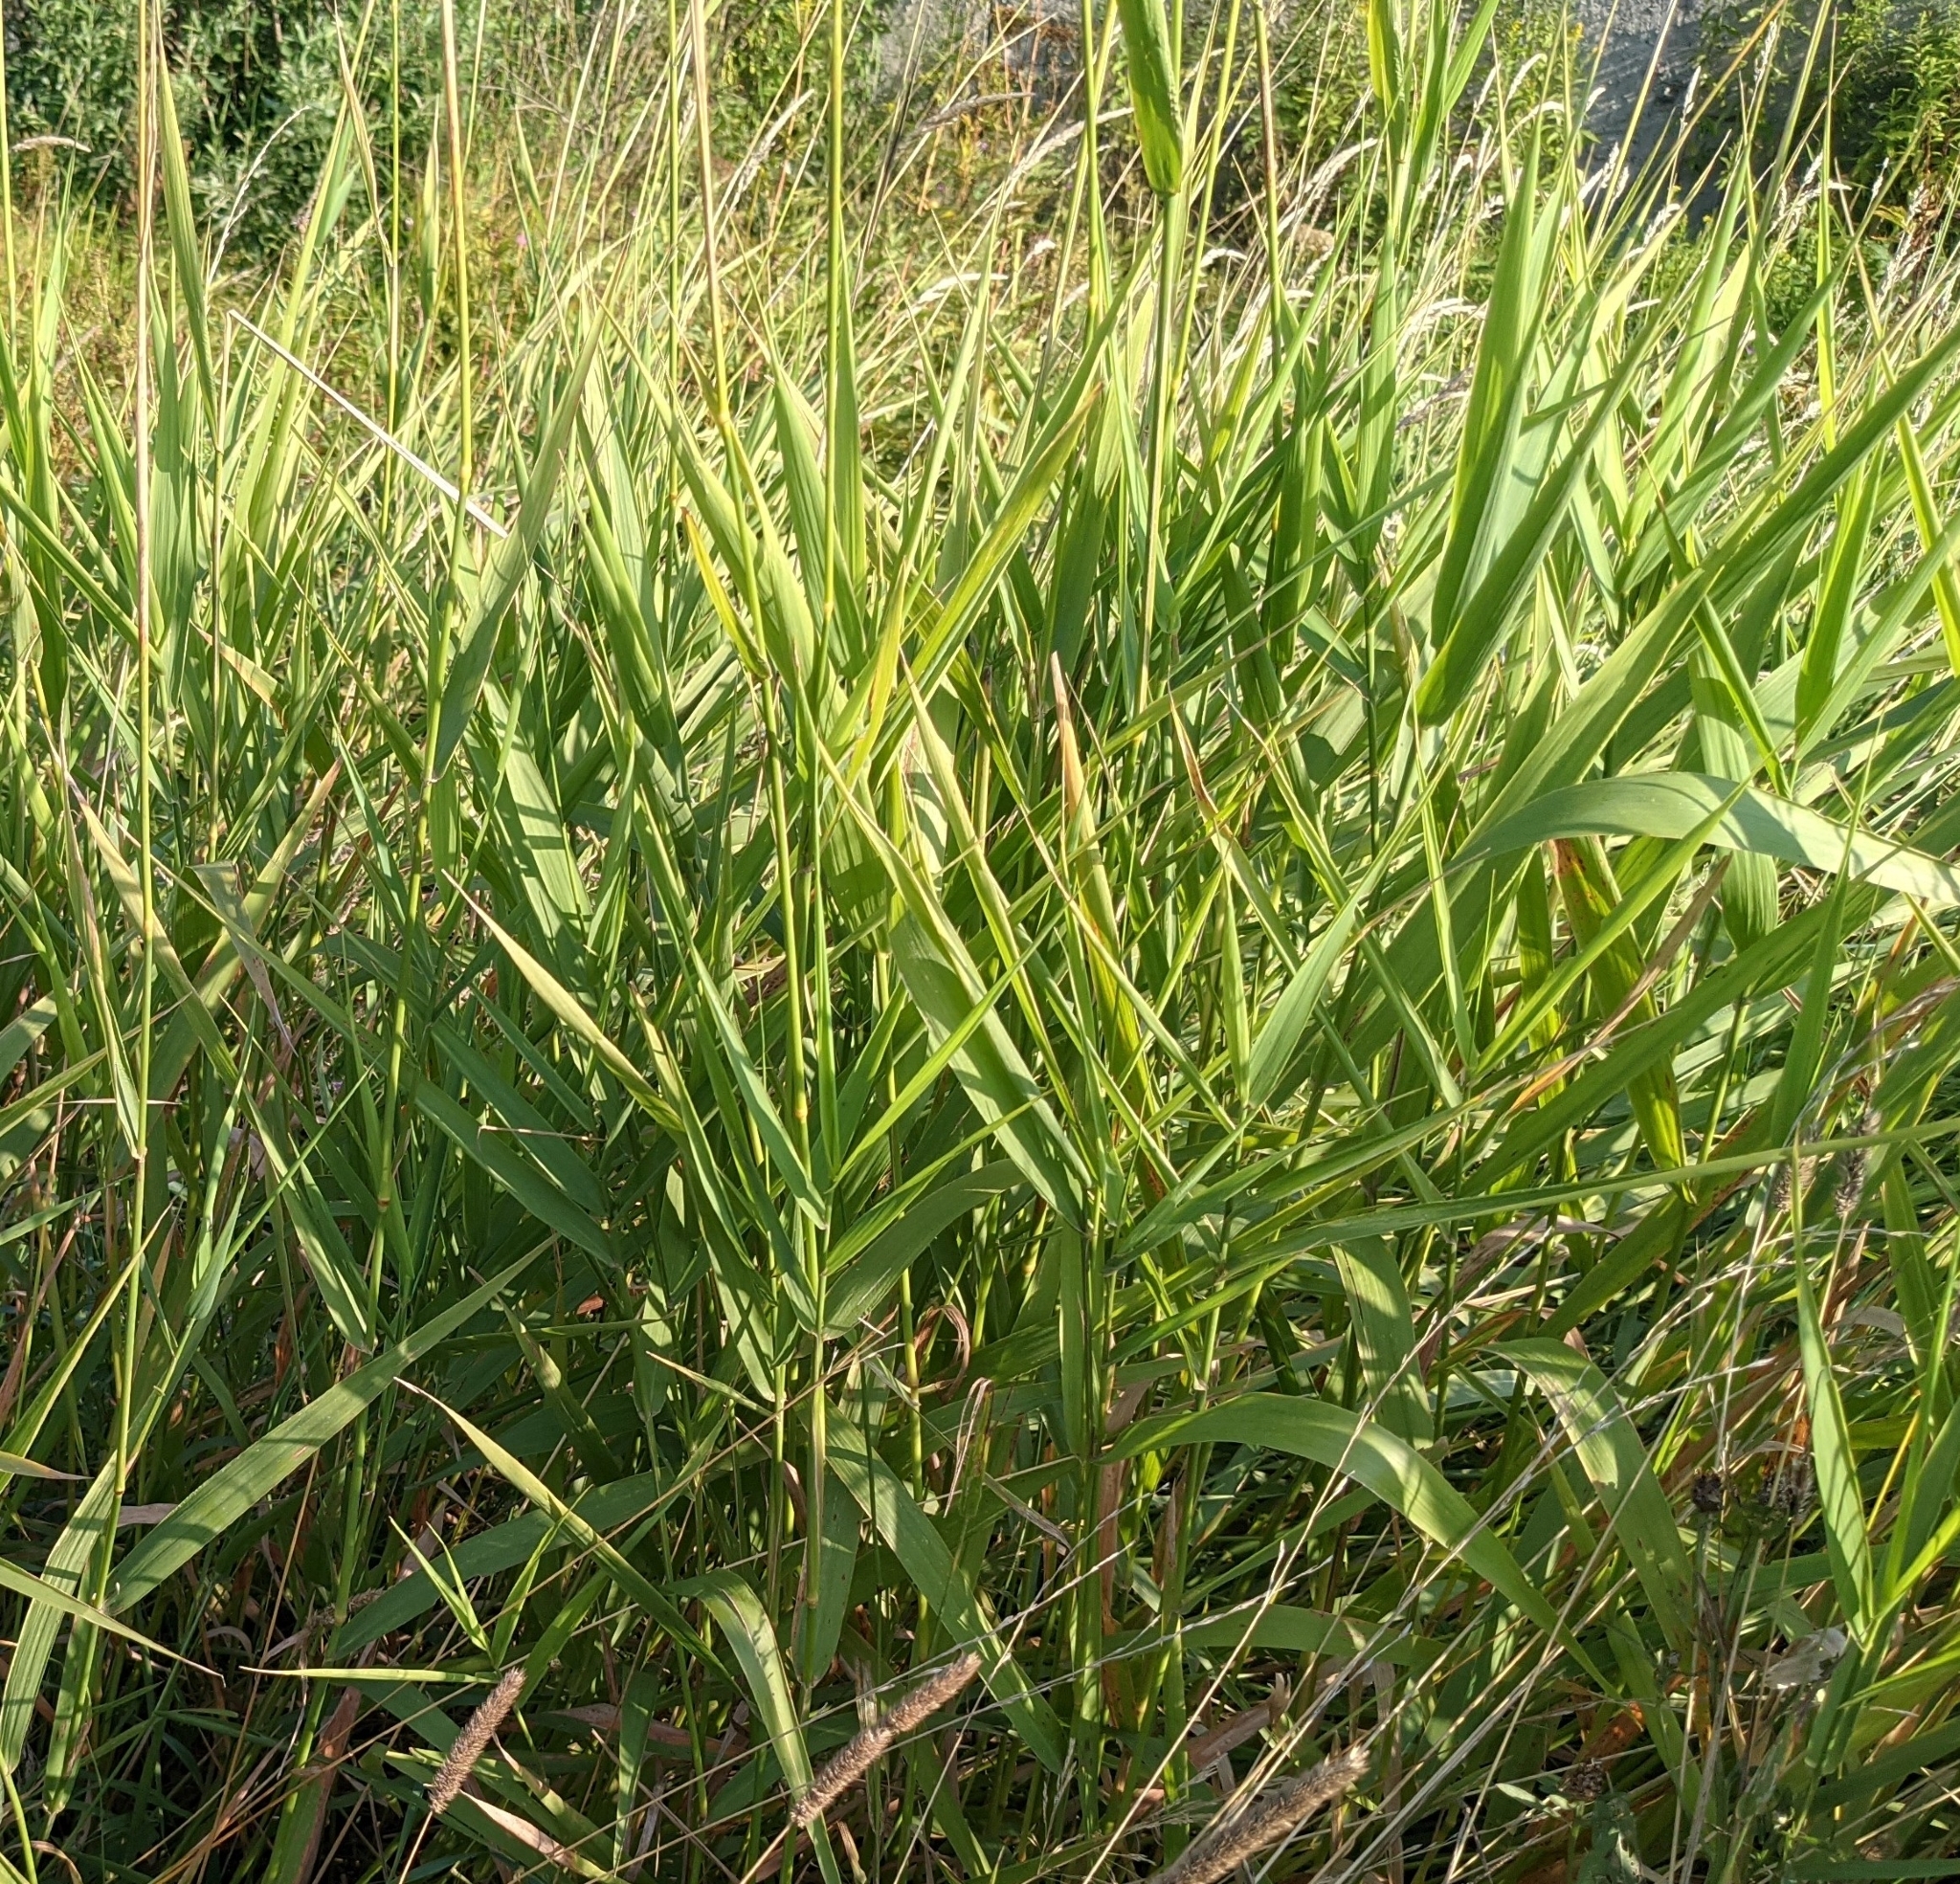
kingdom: Plantae
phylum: Tracheophyta
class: Liliopsida
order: Poales
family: Poaceae
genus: Phalaris
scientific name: Phalaris arundinacea
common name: Reed canary-grass
